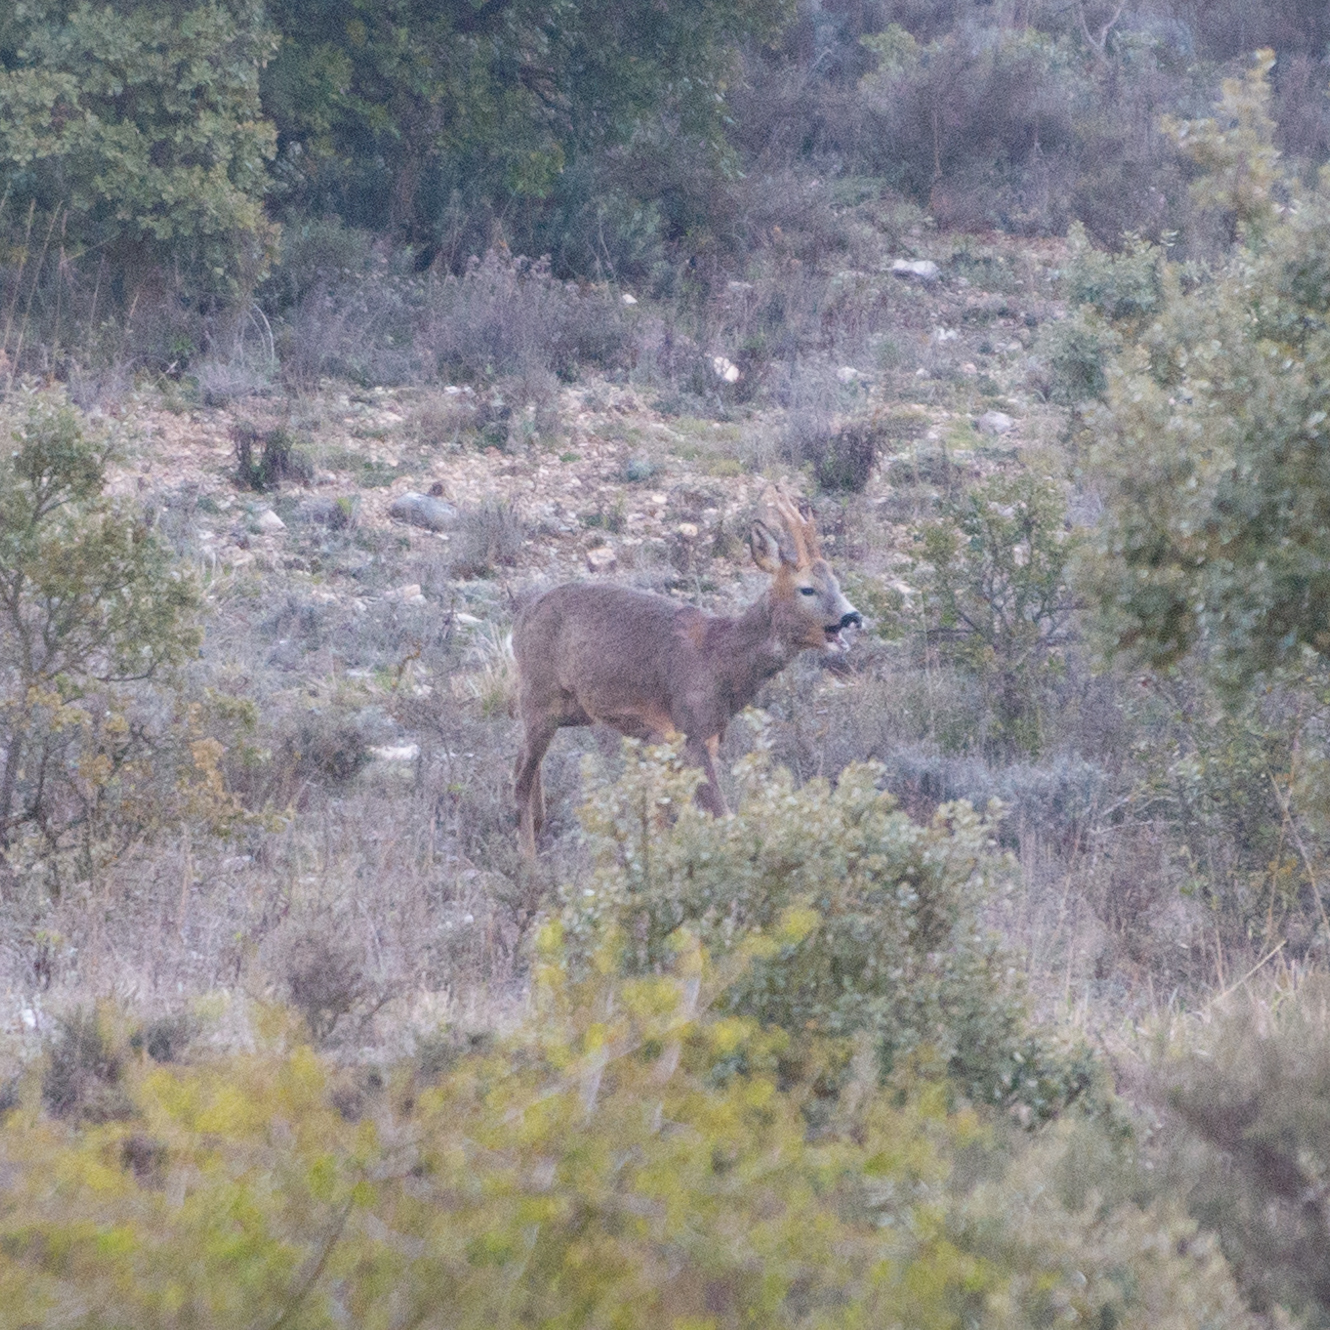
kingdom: Animalia
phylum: Chordata
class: Mammalia
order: Artiodactyla
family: Cervidae
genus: Capreolus
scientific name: Capreolus capreolus
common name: Western roe deer
